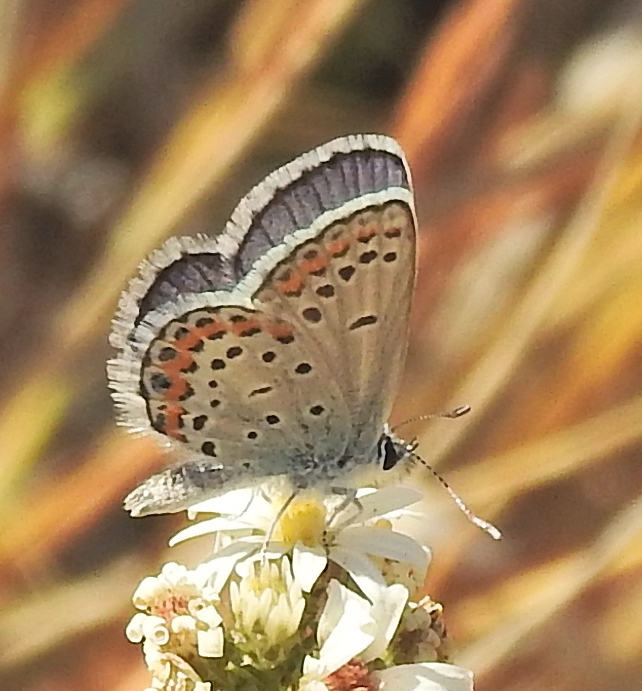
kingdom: Animalia
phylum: Arthropoda
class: Insecta
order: Lepidoptera
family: Lycaenidae
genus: Lycaeides
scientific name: Lycaeides melissa
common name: Melissa blue
